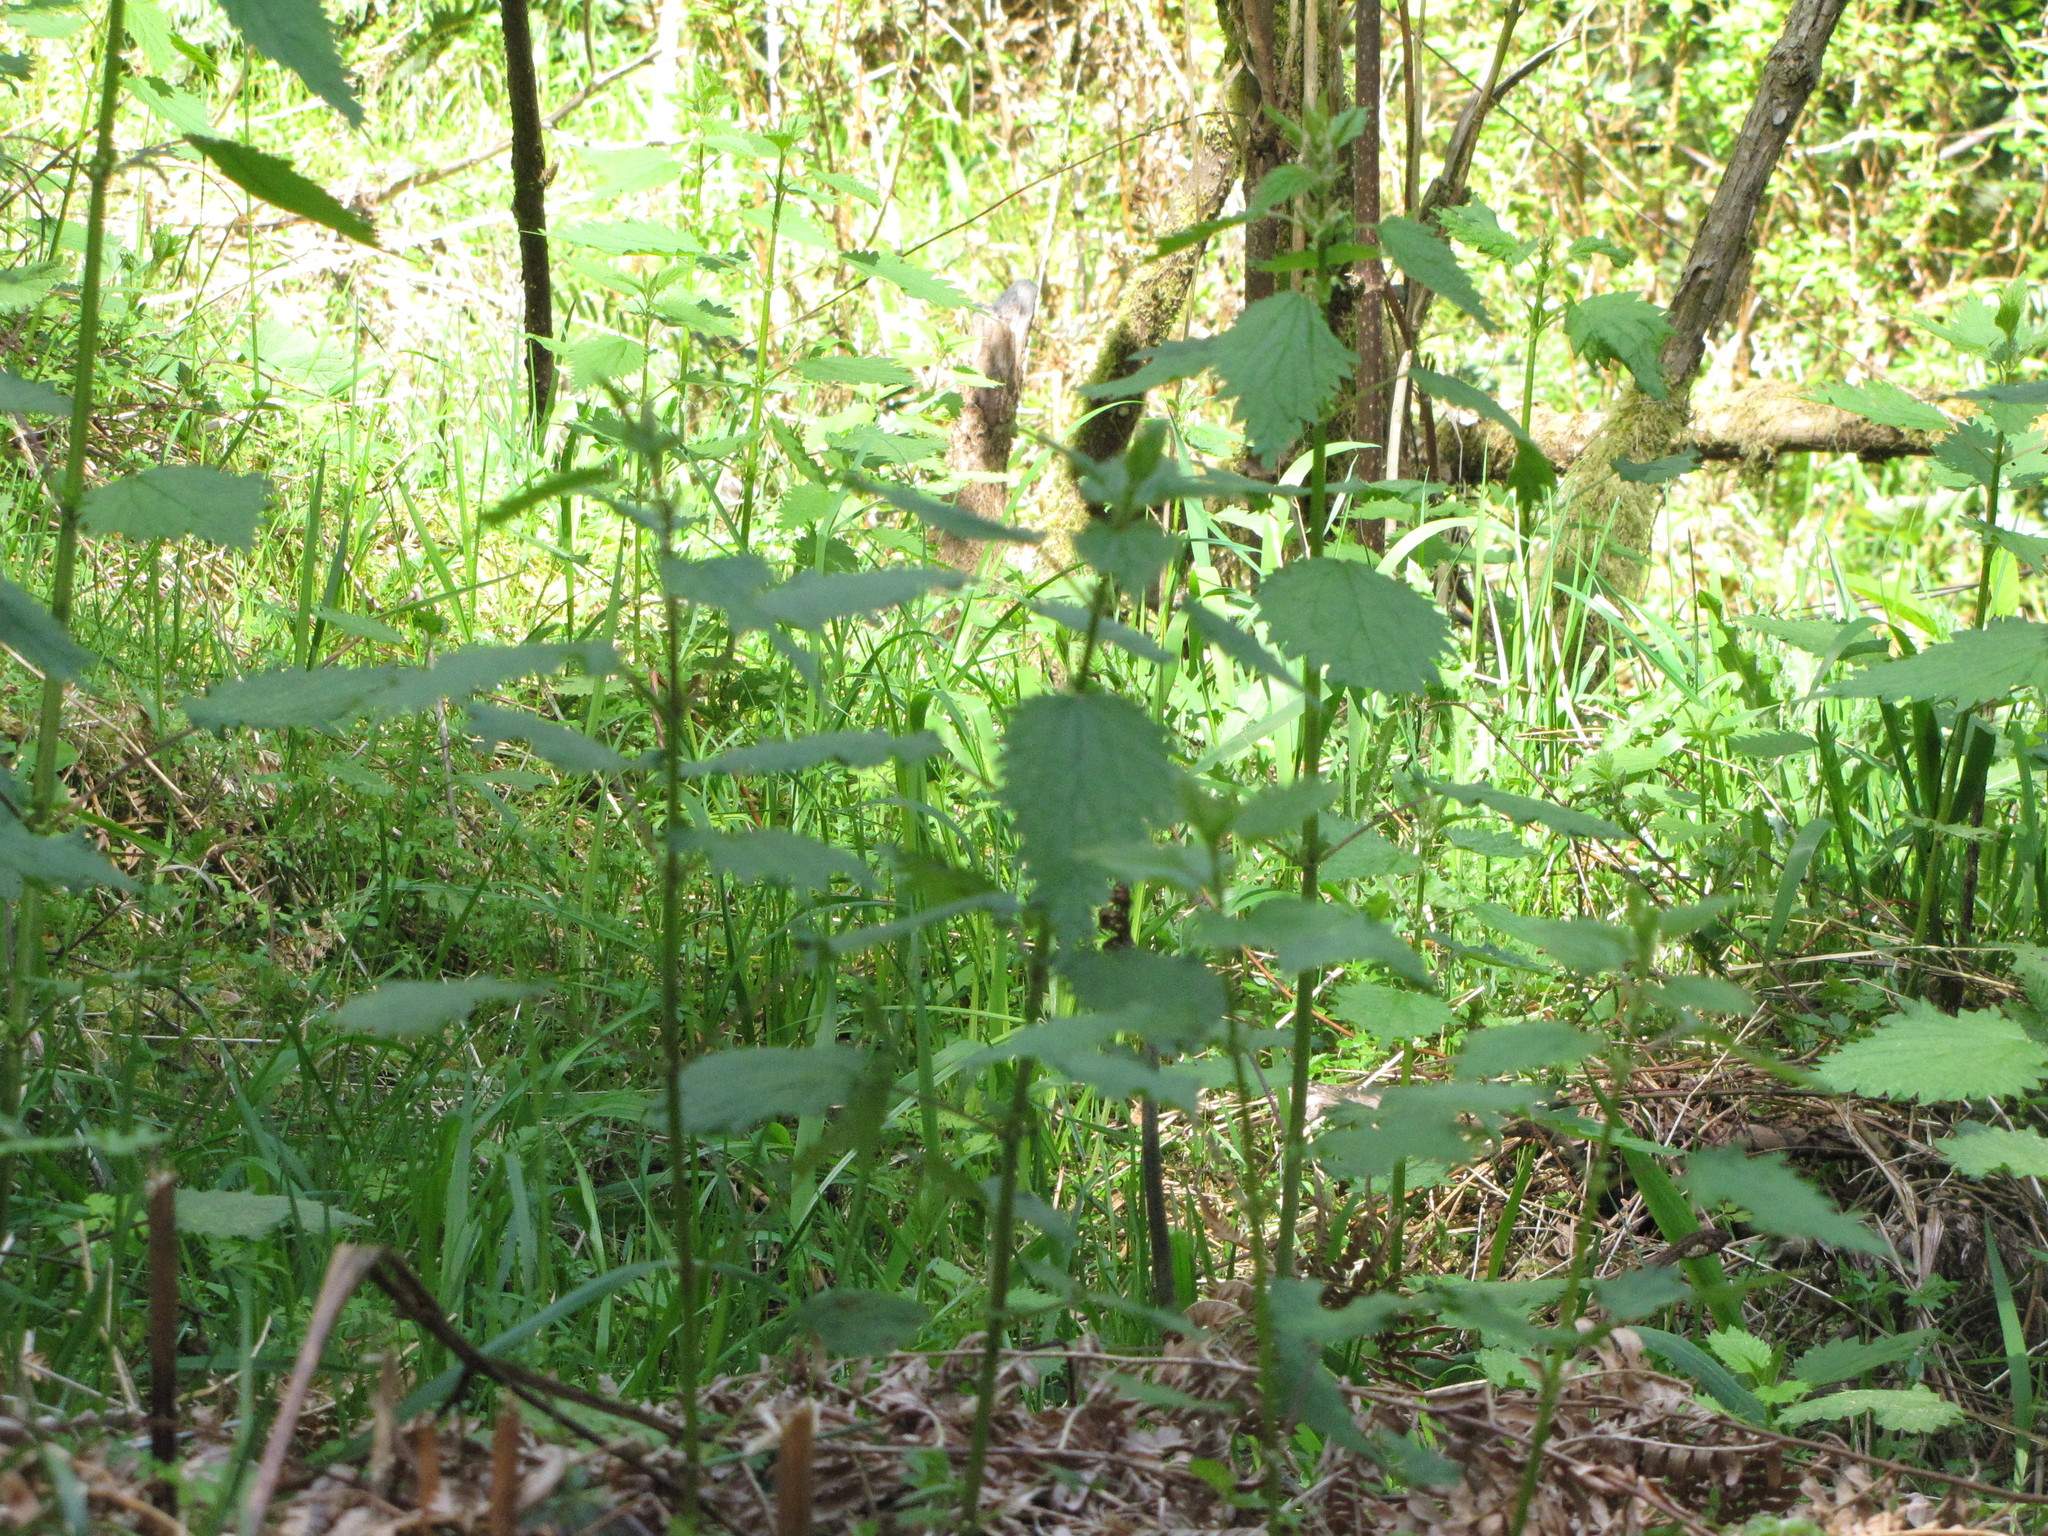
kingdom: Plantae
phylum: Tracheophyta
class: Magnoliopsida
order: Rosales
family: Urticaceae
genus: Urtica
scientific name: Urtica dioica
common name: Common nettle
